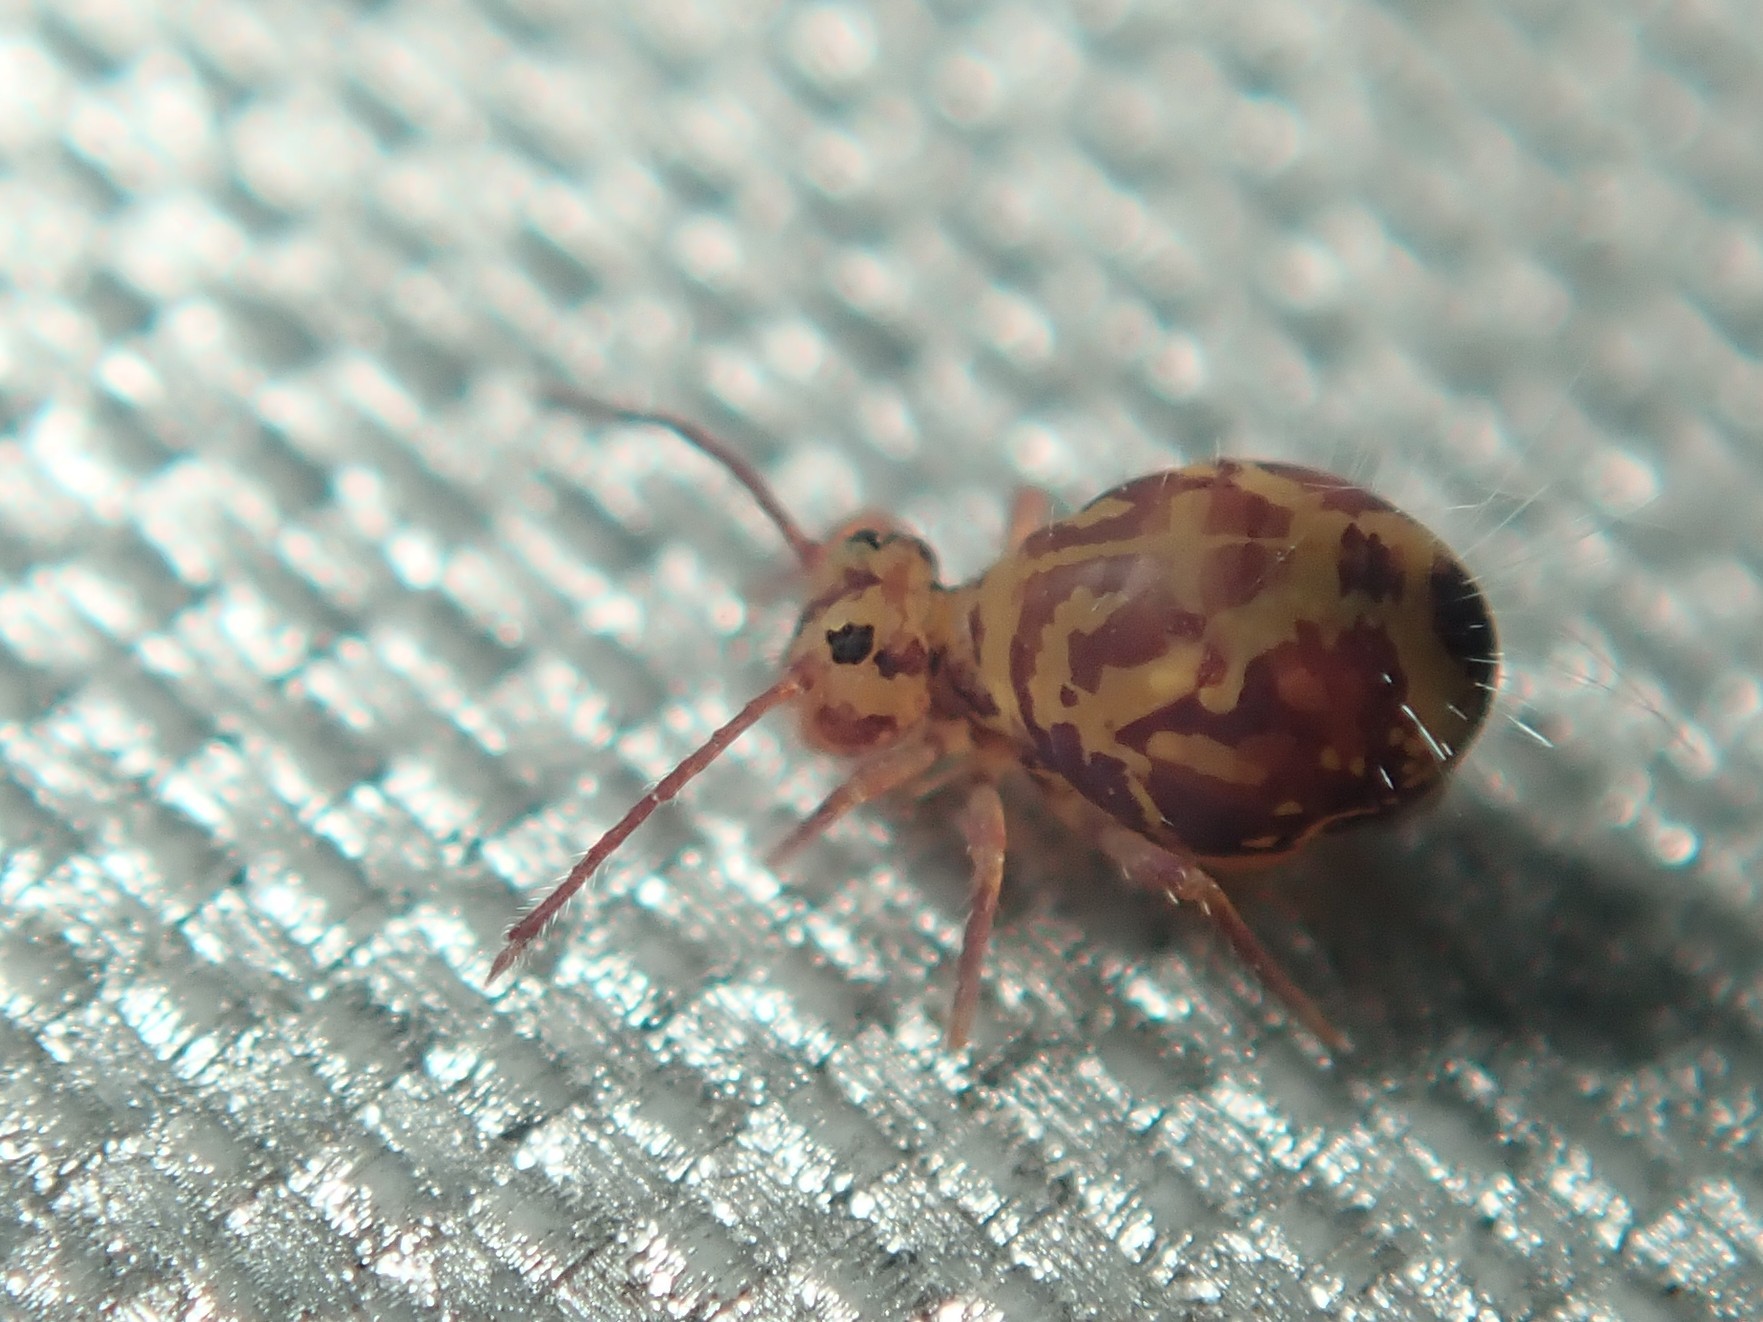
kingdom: Animalia
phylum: Arthropoda
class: Collembola
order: Symphypleona
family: Dicyrtomidae
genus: Dicyrtomina
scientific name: Dicyrtomina ornata
